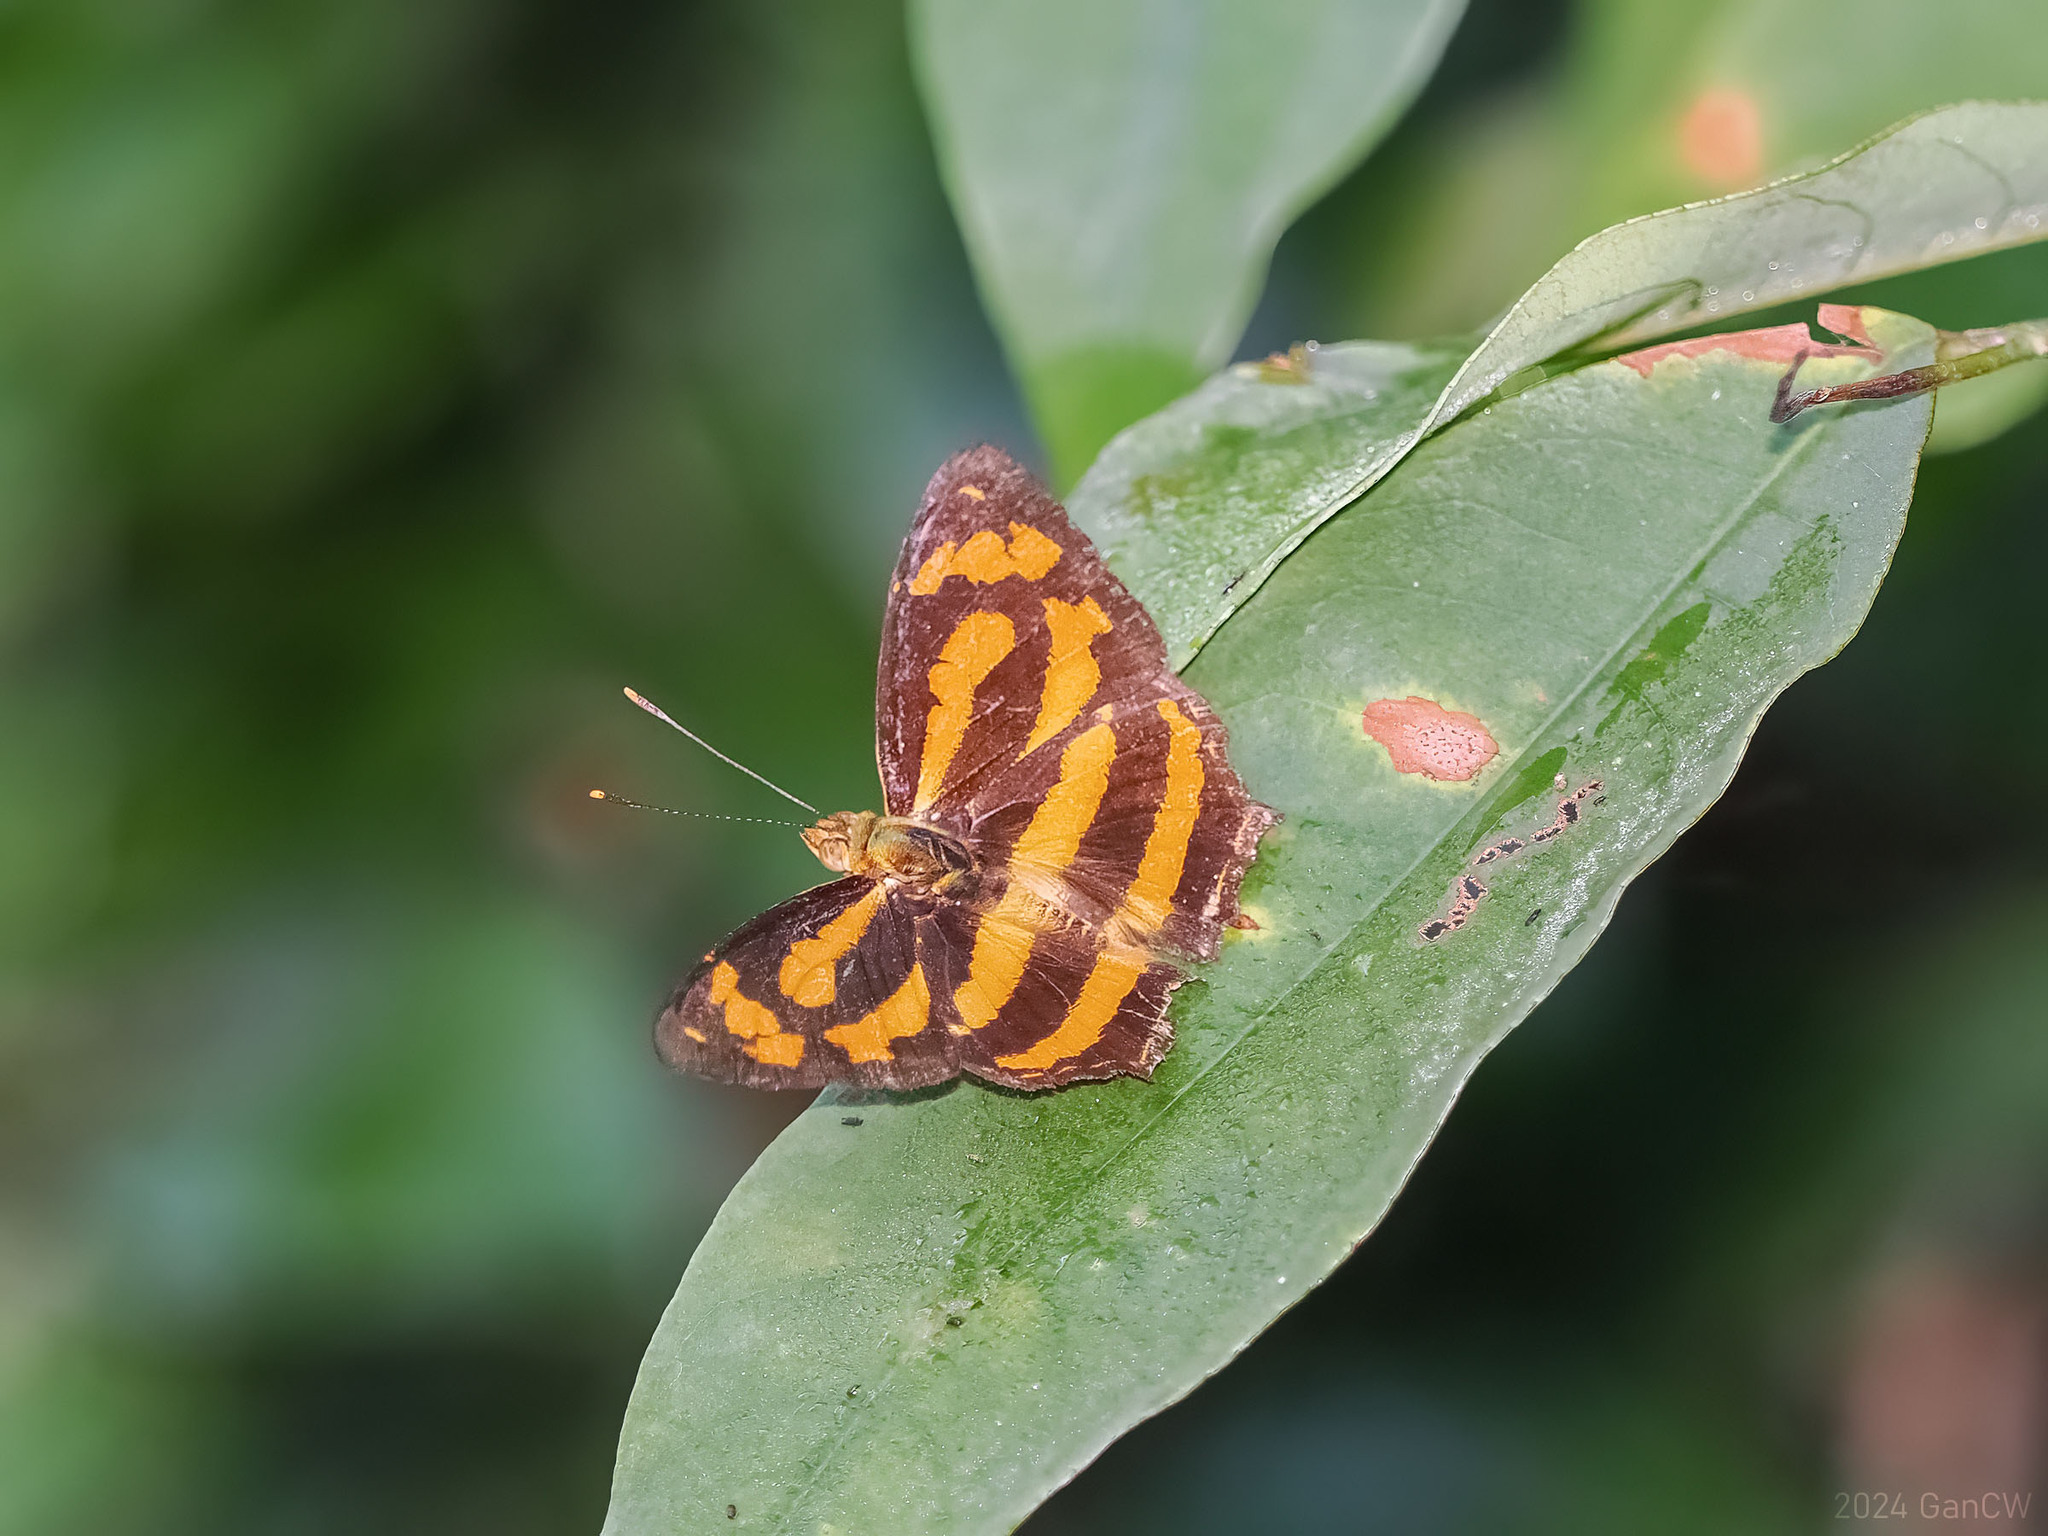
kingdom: Animalia
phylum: Arthropoda
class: Insecta
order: Lepidoptera
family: Nymphalidae
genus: Symbrenthia
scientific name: Symbrenthia hippoclus
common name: Common jester
